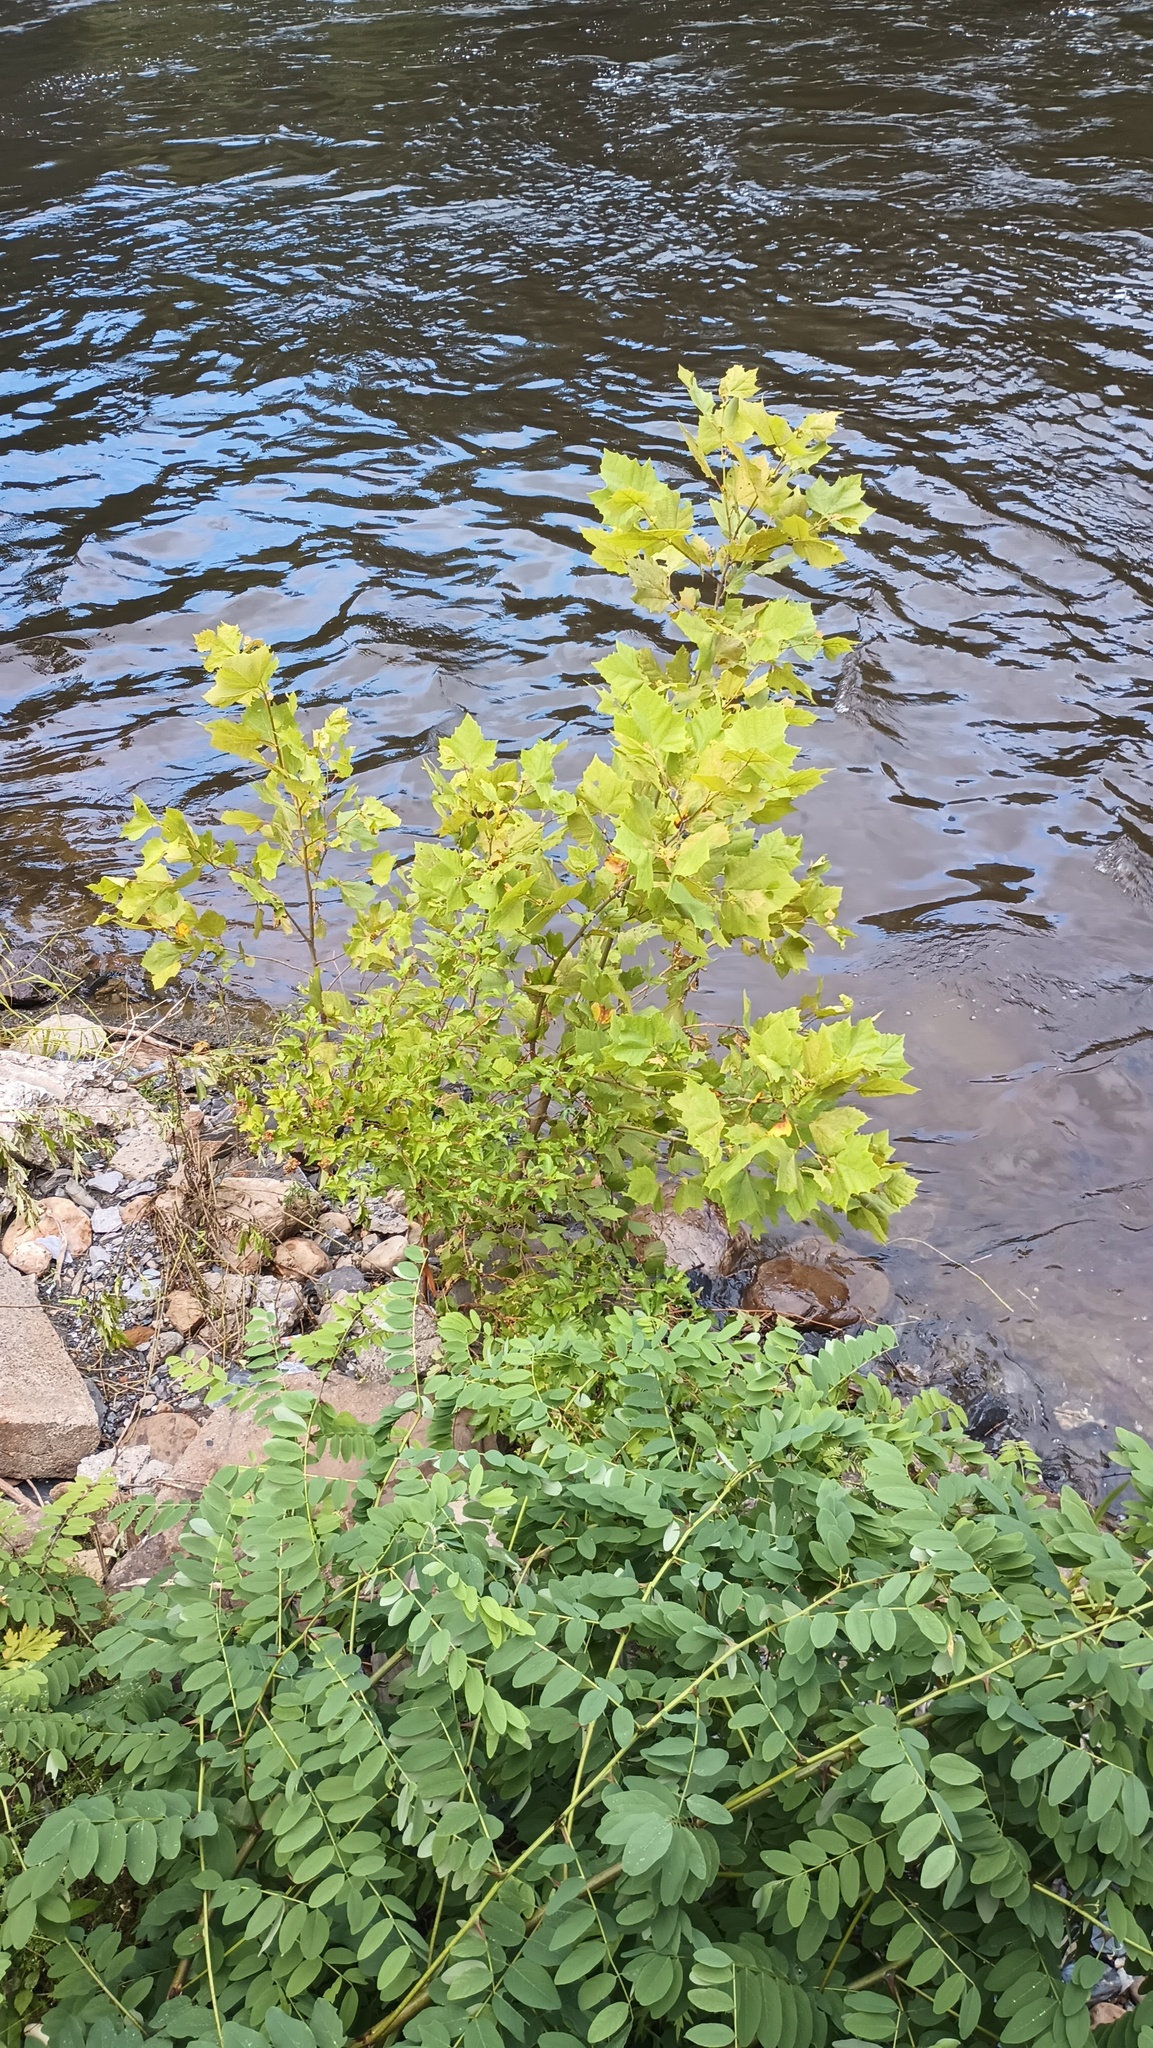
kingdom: Plantae
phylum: Tracheophyta
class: Magnoliopsida
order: Proteales
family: Platanaceae
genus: Platanus
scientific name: Platanus occidentalis
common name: American sycamore
